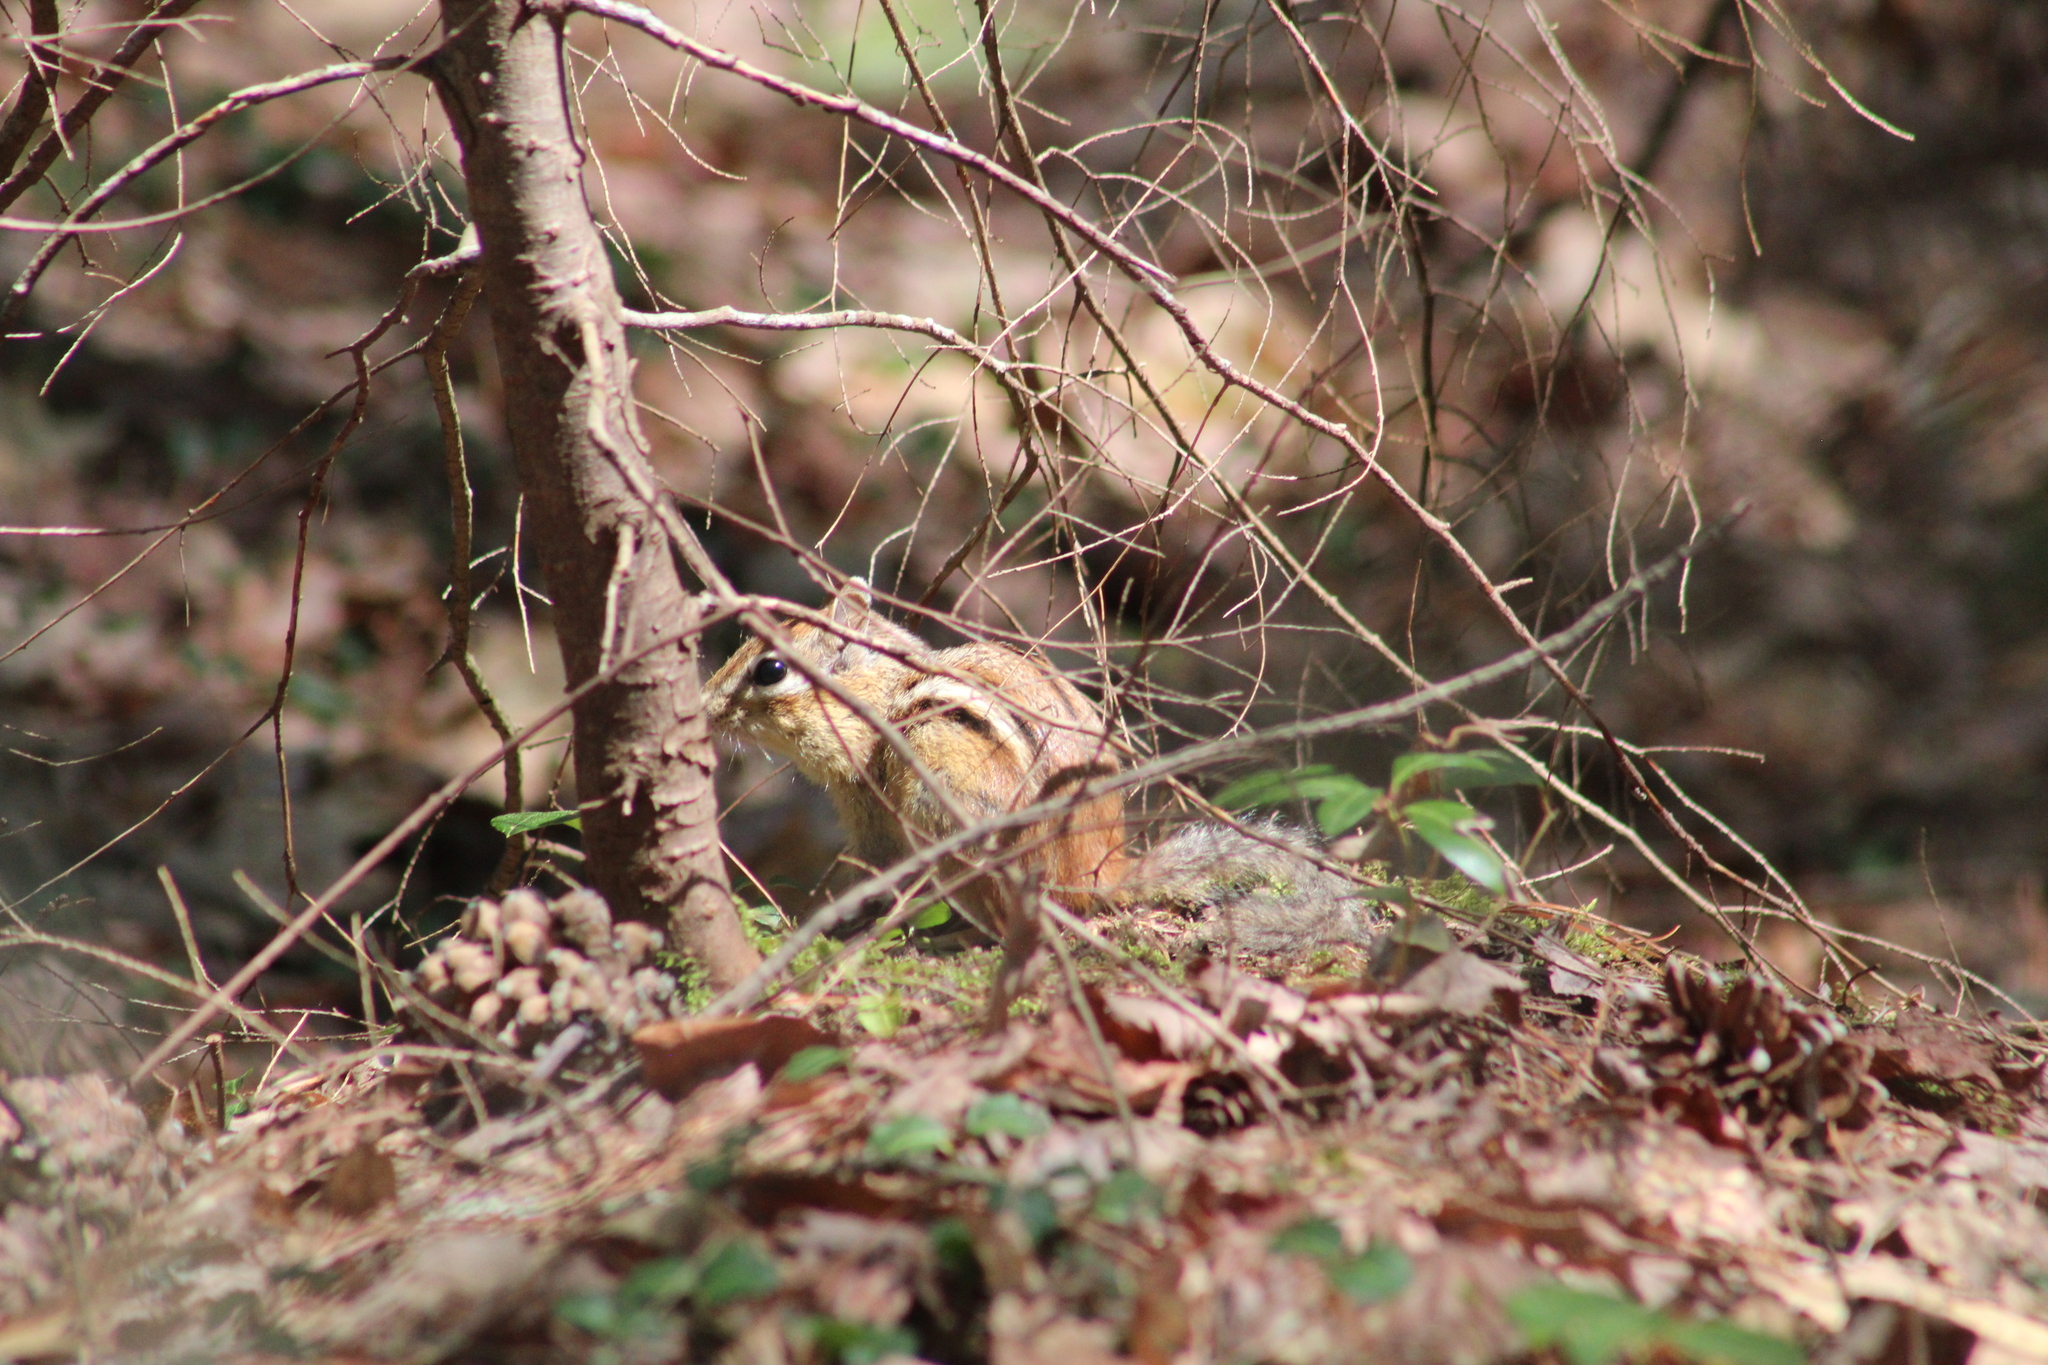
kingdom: Animalia
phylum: Chordata
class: Mammalia
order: Rodentia
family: Sciuridae
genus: Tamias
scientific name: Tamias striatus
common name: Eastern chipmunk
